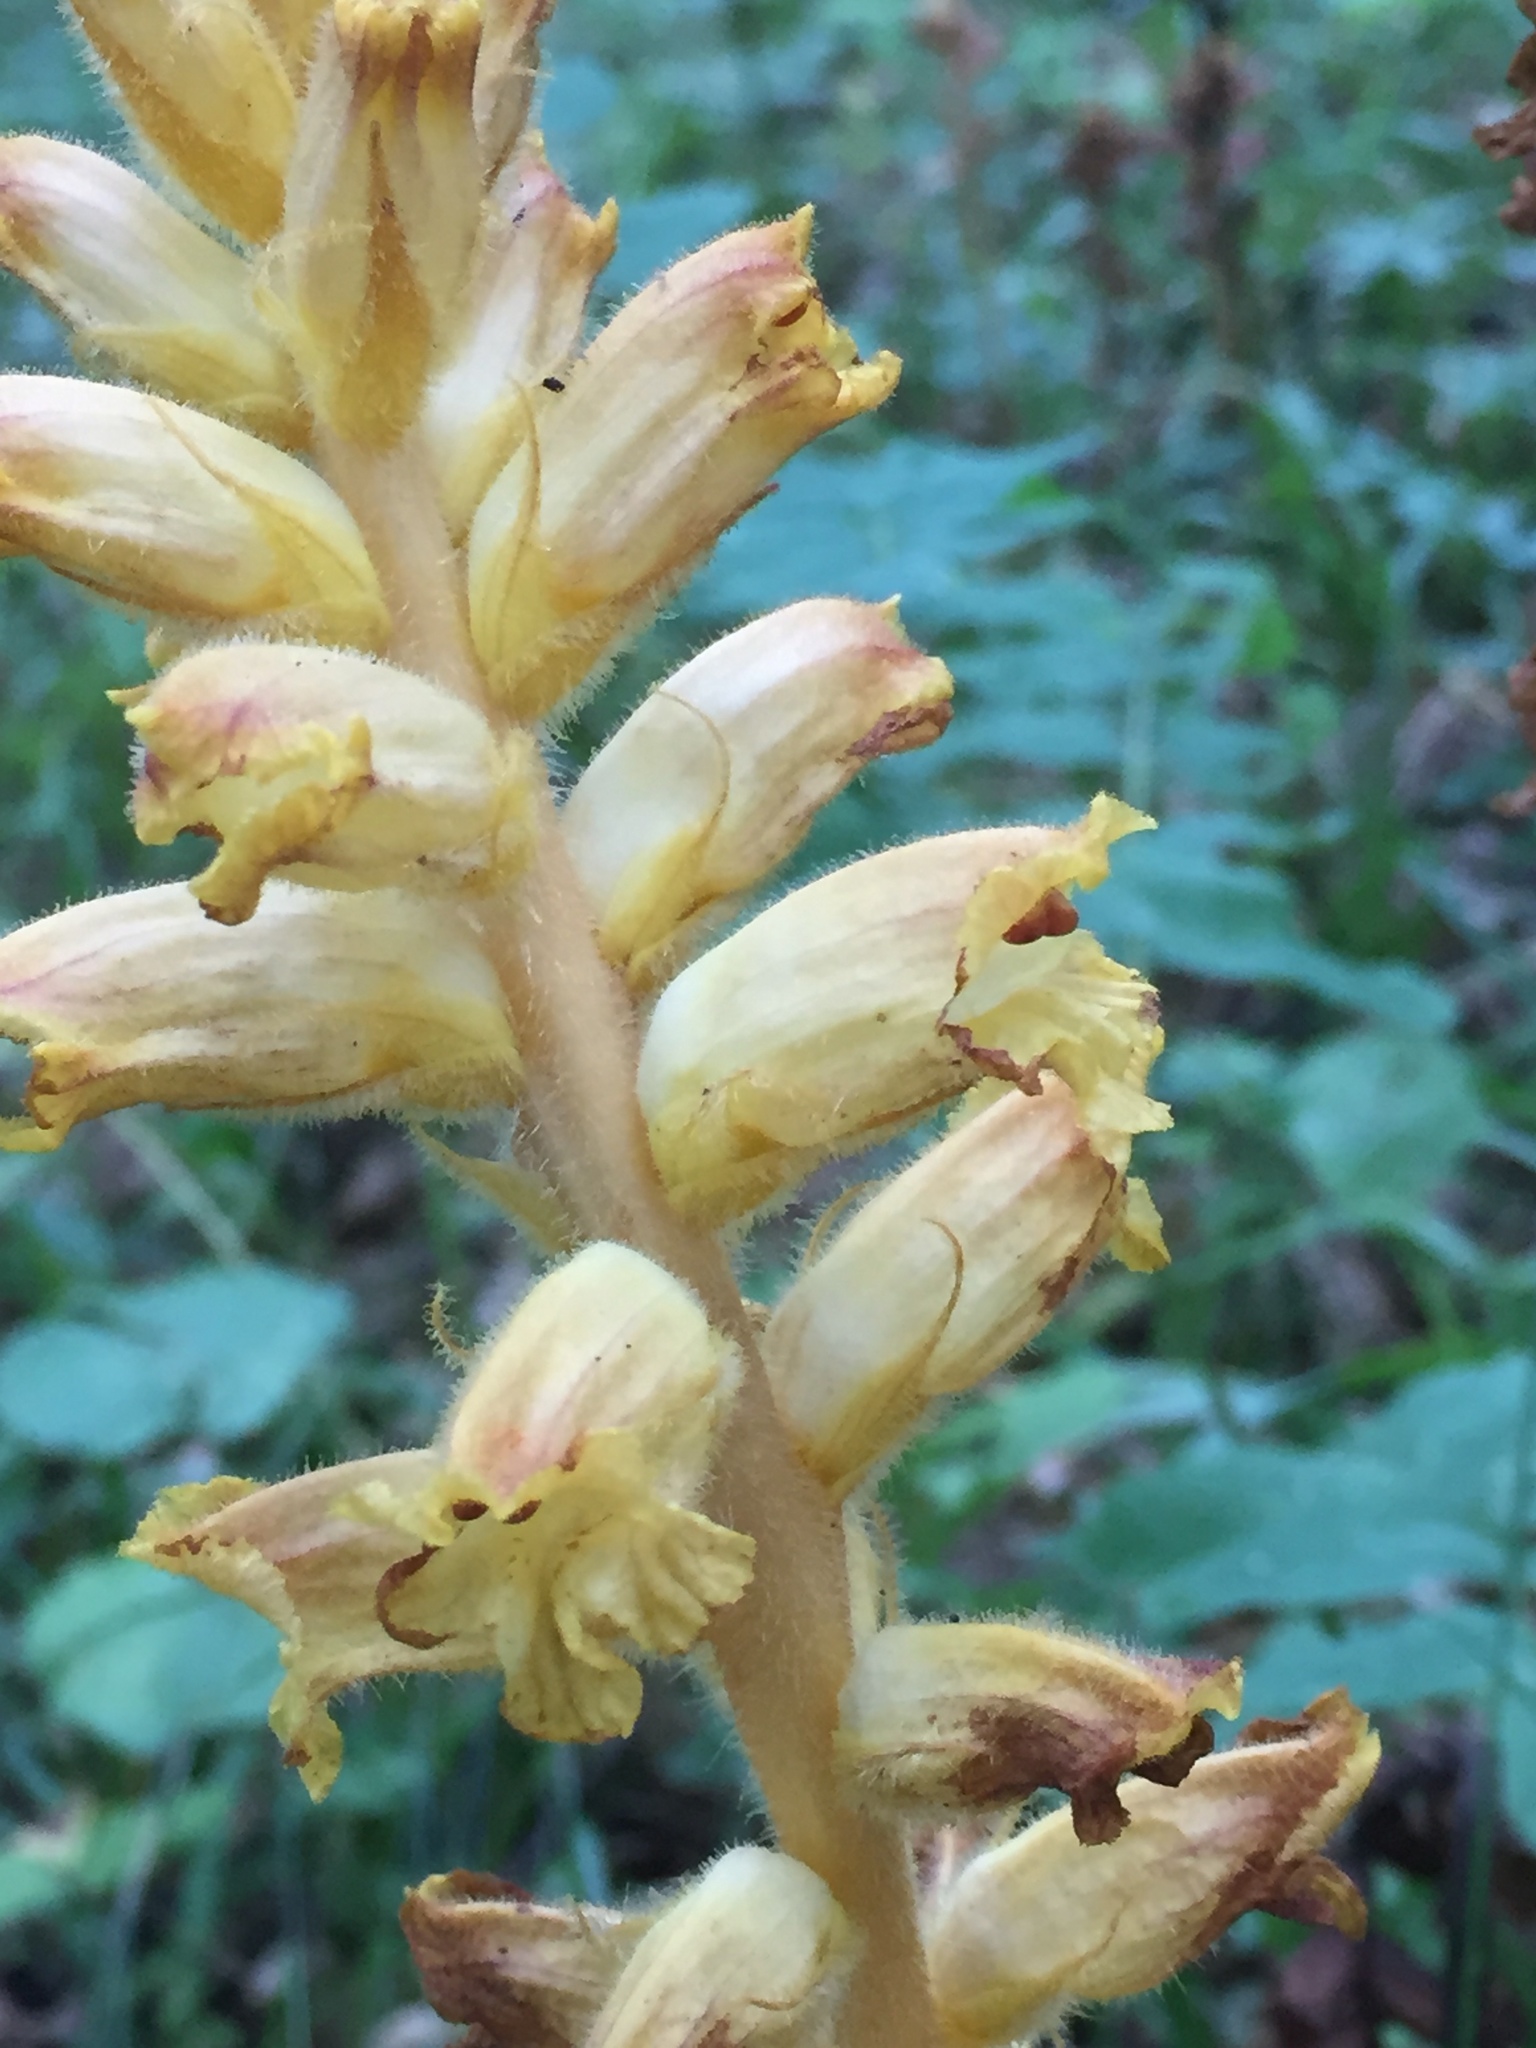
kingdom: Plantae
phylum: Tracheophyta
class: Magnoliopsida
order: Lamiales
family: Orobanchaceae
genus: Orobanche
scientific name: Orobanche minor
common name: Common broomrape
